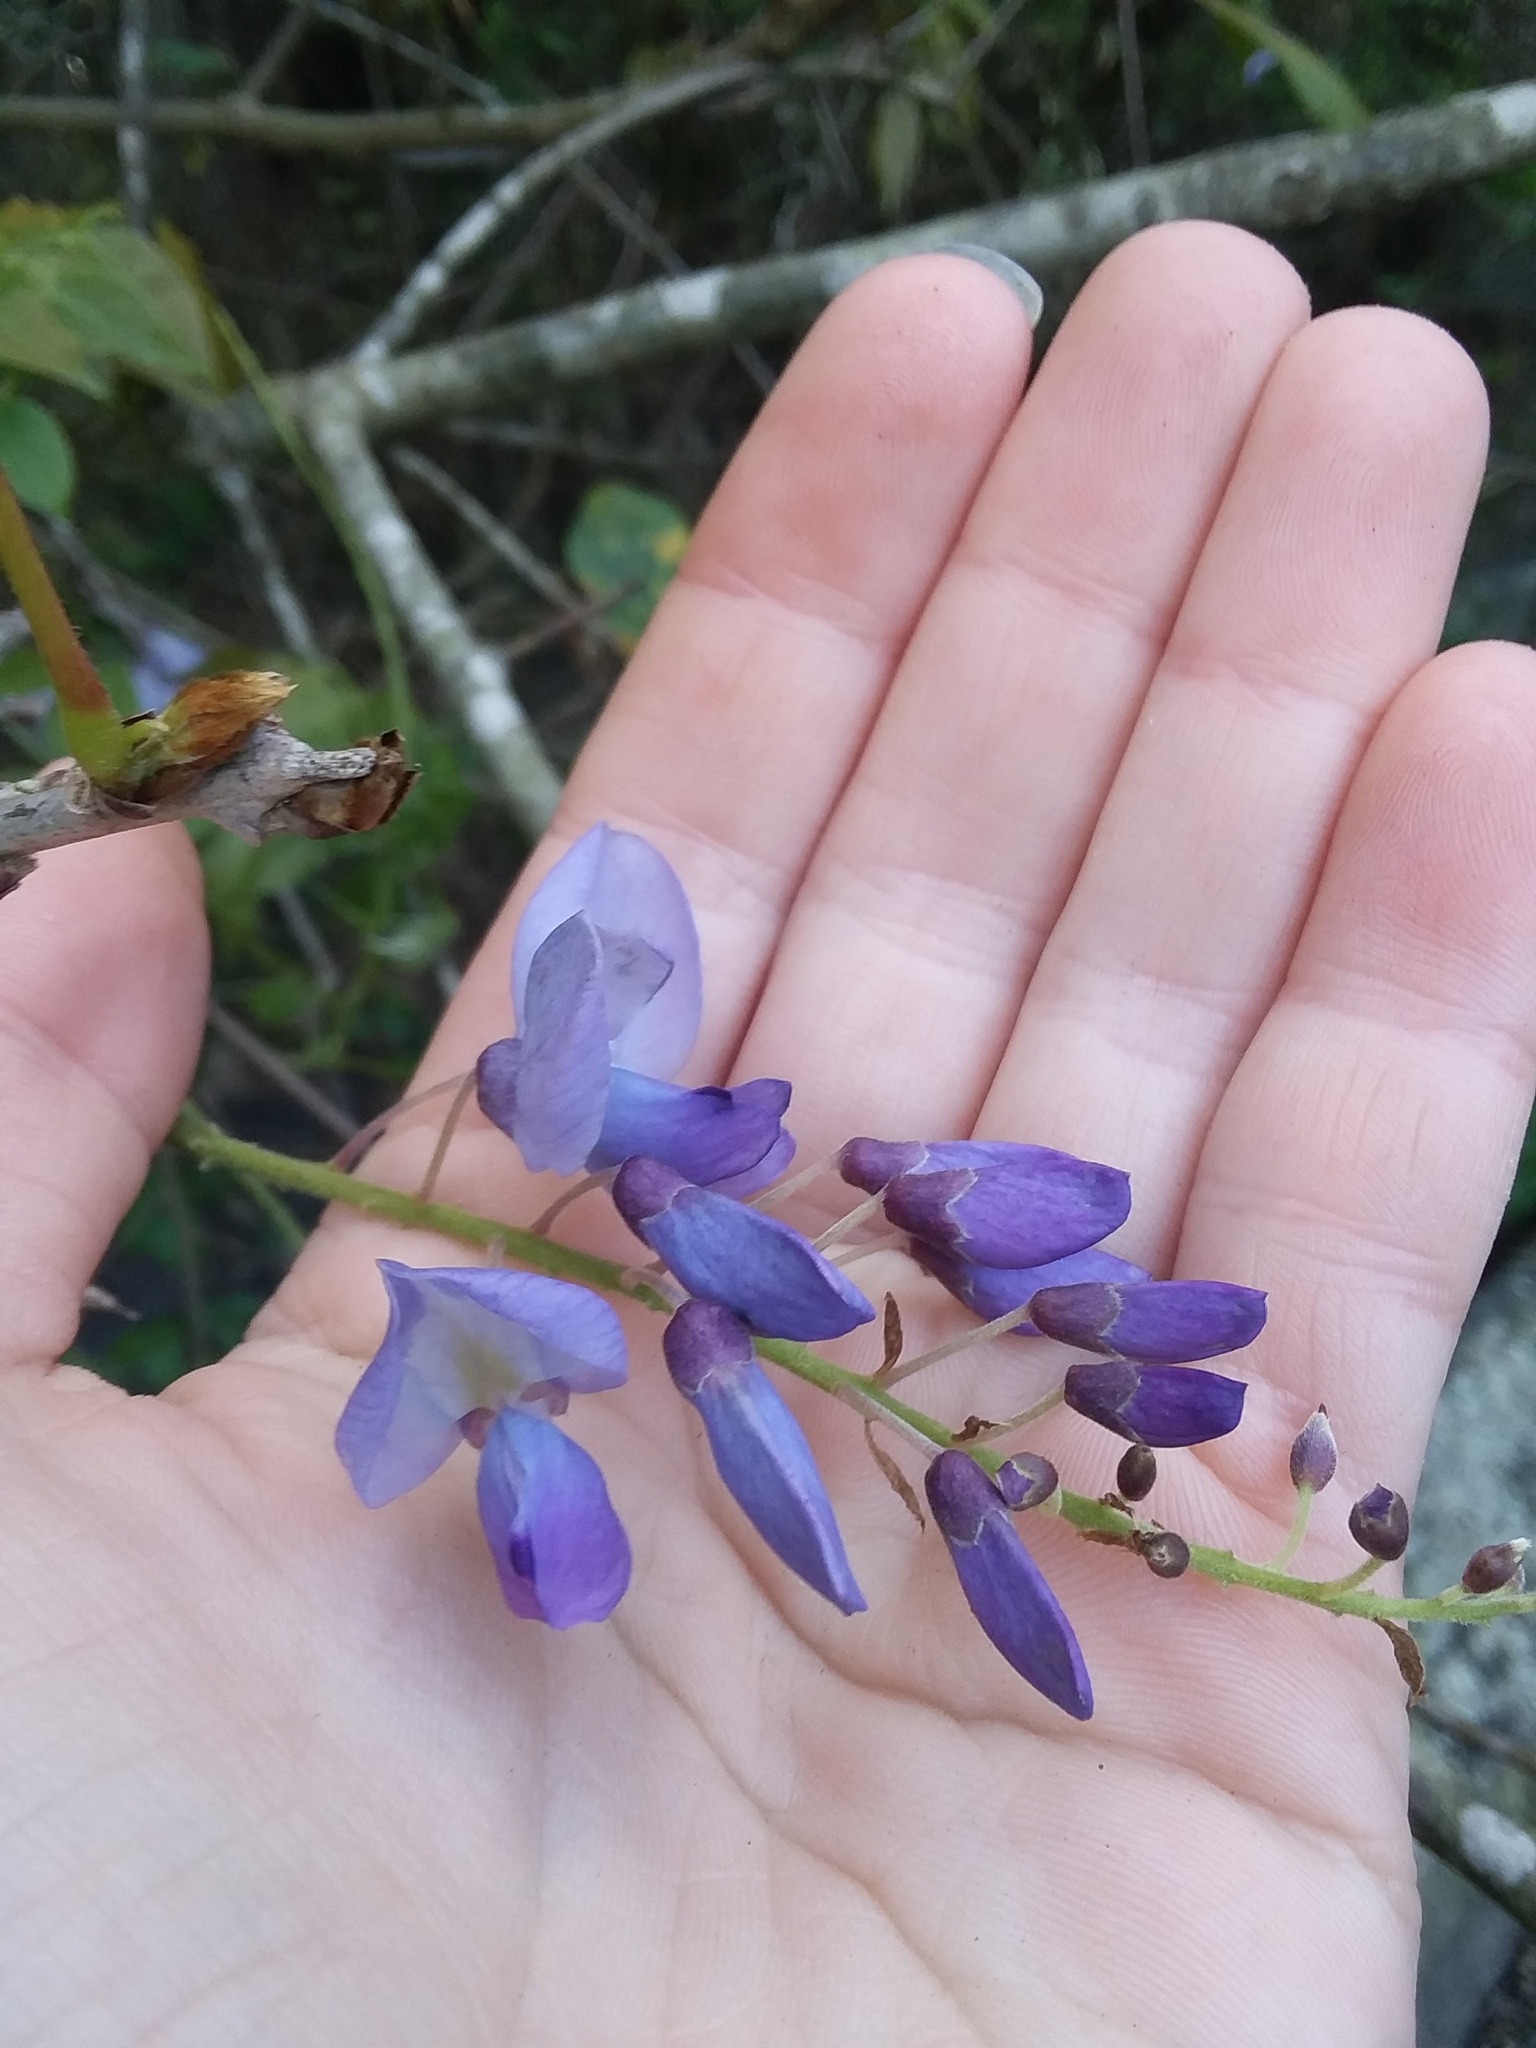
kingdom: Plantae
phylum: Tracheophyta
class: Magnoliopsida
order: Fabales
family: Fabaceae
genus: Wisteria
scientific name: Wisteria frutescens
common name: American wisteria
